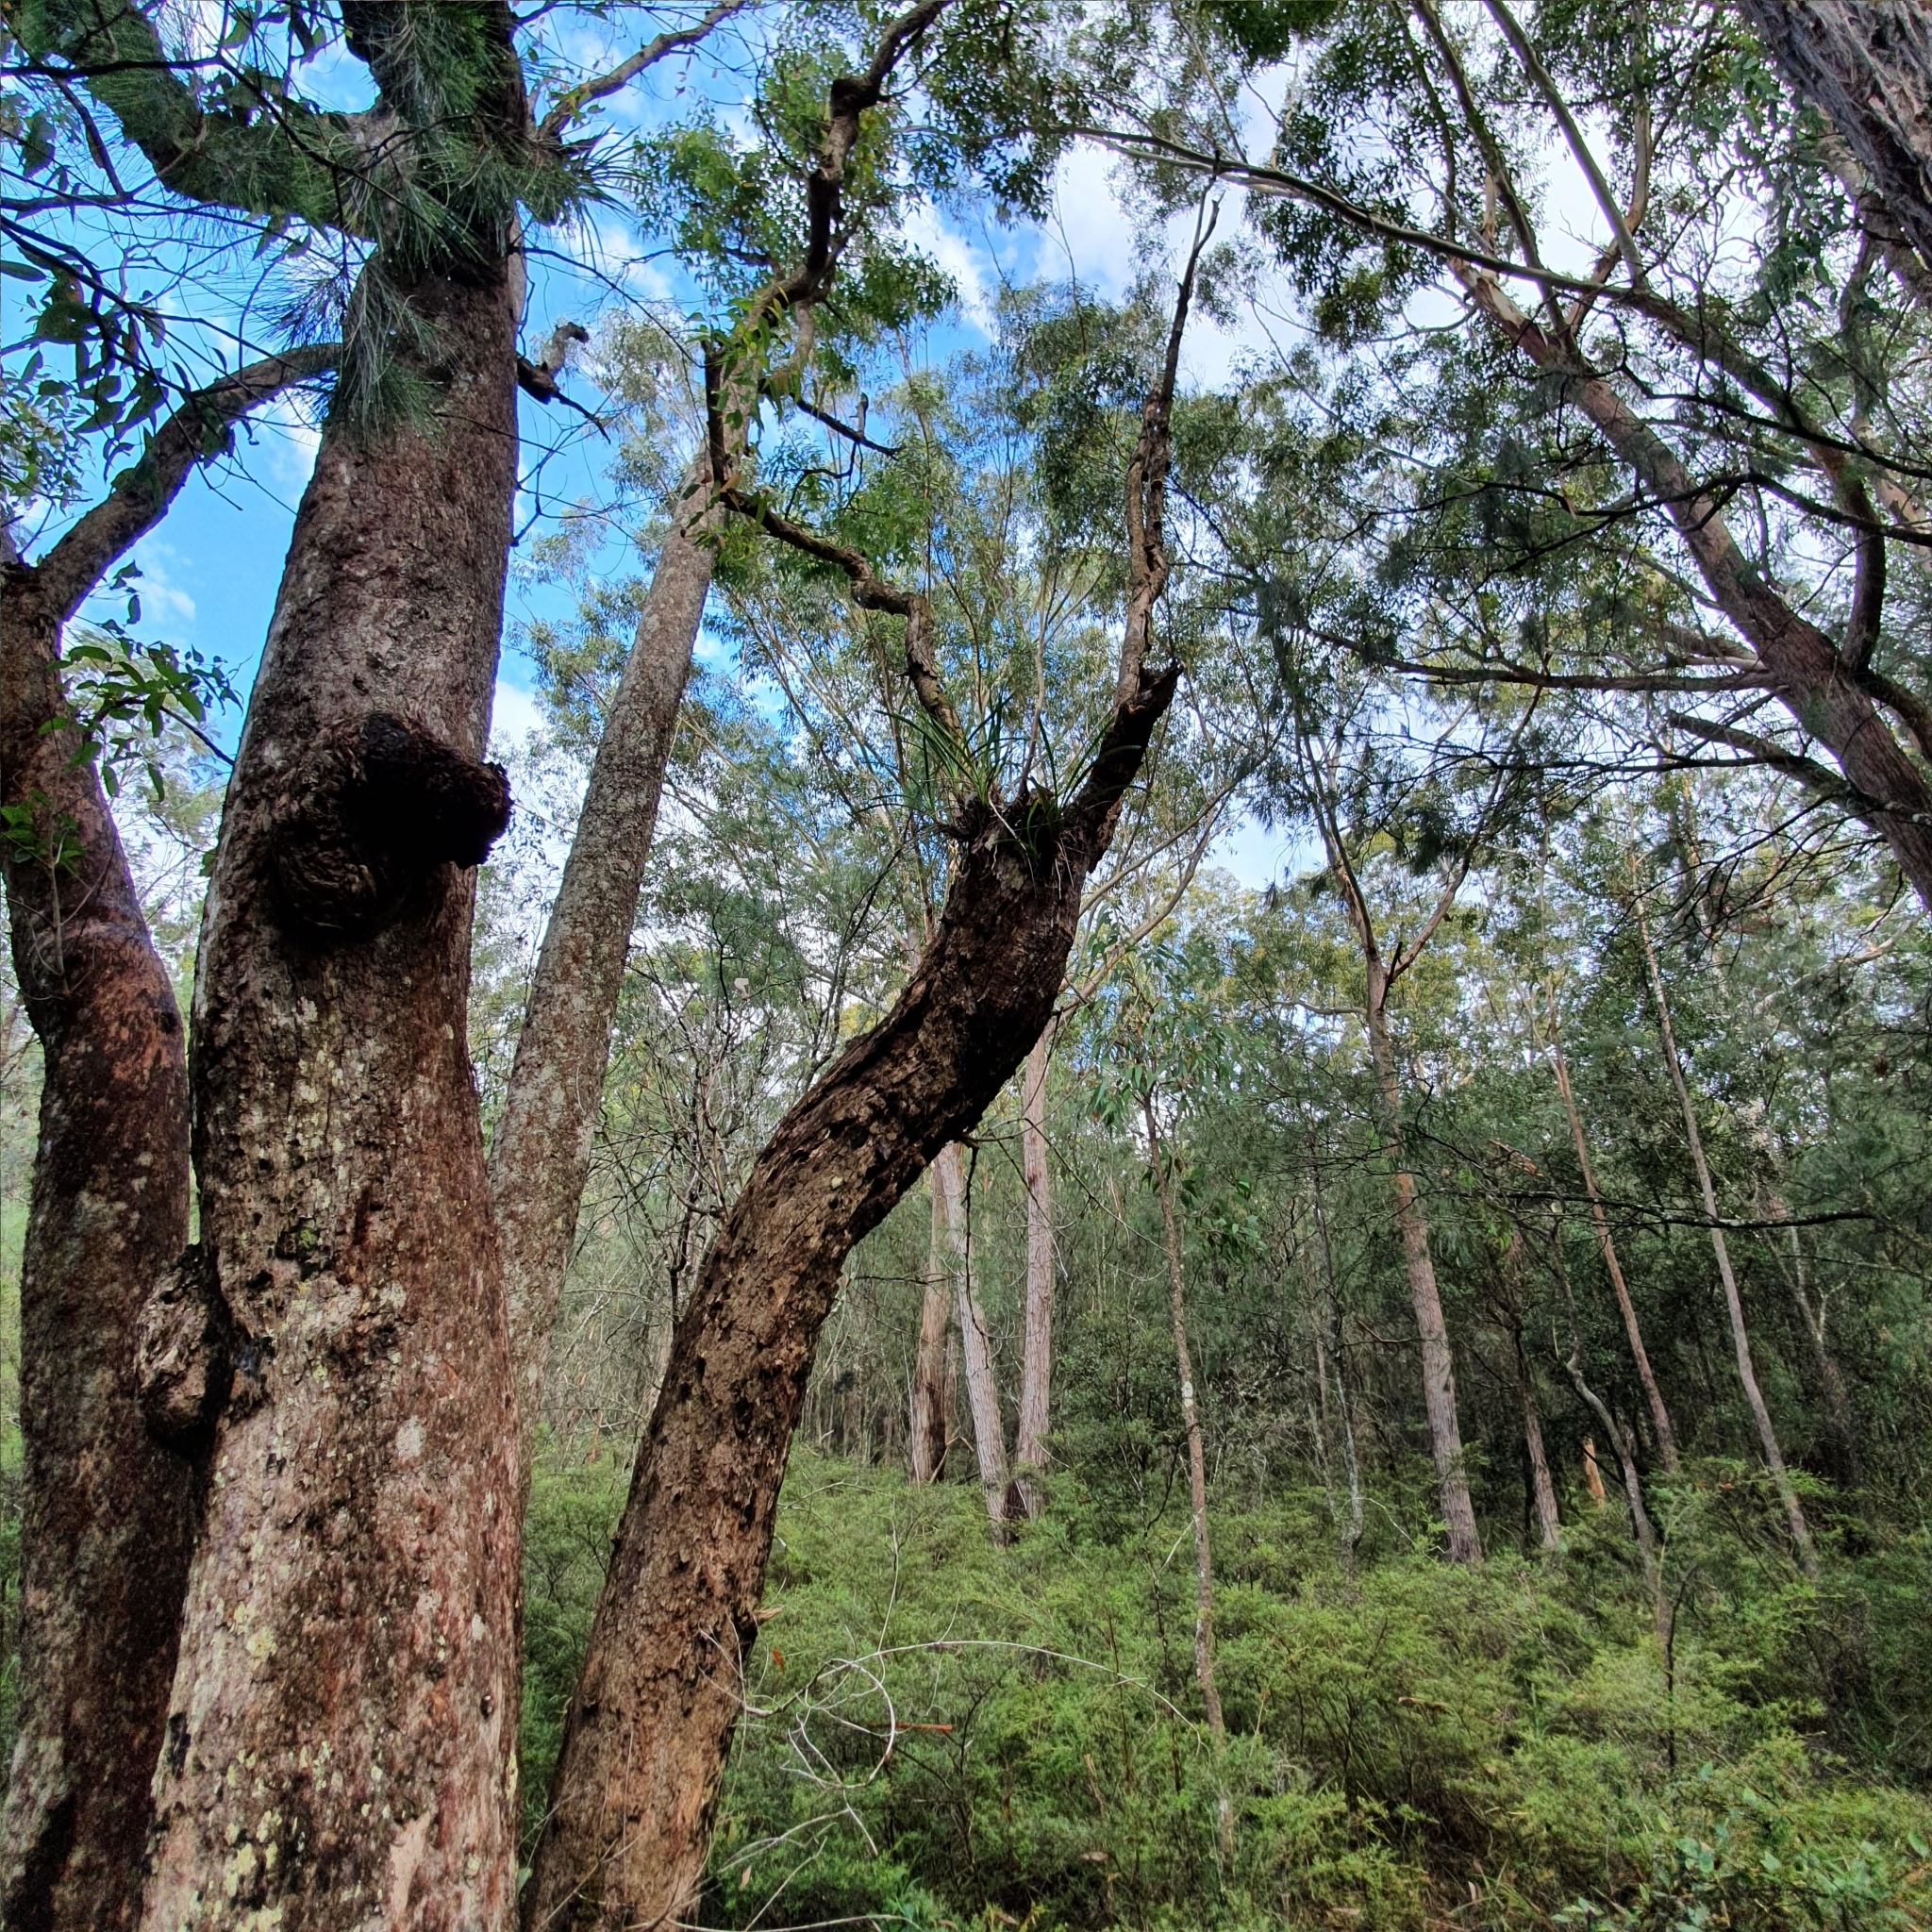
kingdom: Plantae
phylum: Tracheophyta
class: Liliopsida
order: Asparagales
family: Orchidaceae
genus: Cymbidium
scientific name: Cymbidium suave
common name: Snake orchid
